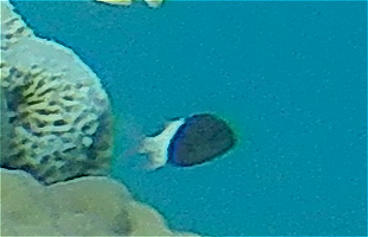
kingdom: Animalia
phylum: Chordata
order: Perciformes
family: Pomacentridae
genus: Chromis
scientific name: Chromis dimidiata
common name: Half-and-half chromis
